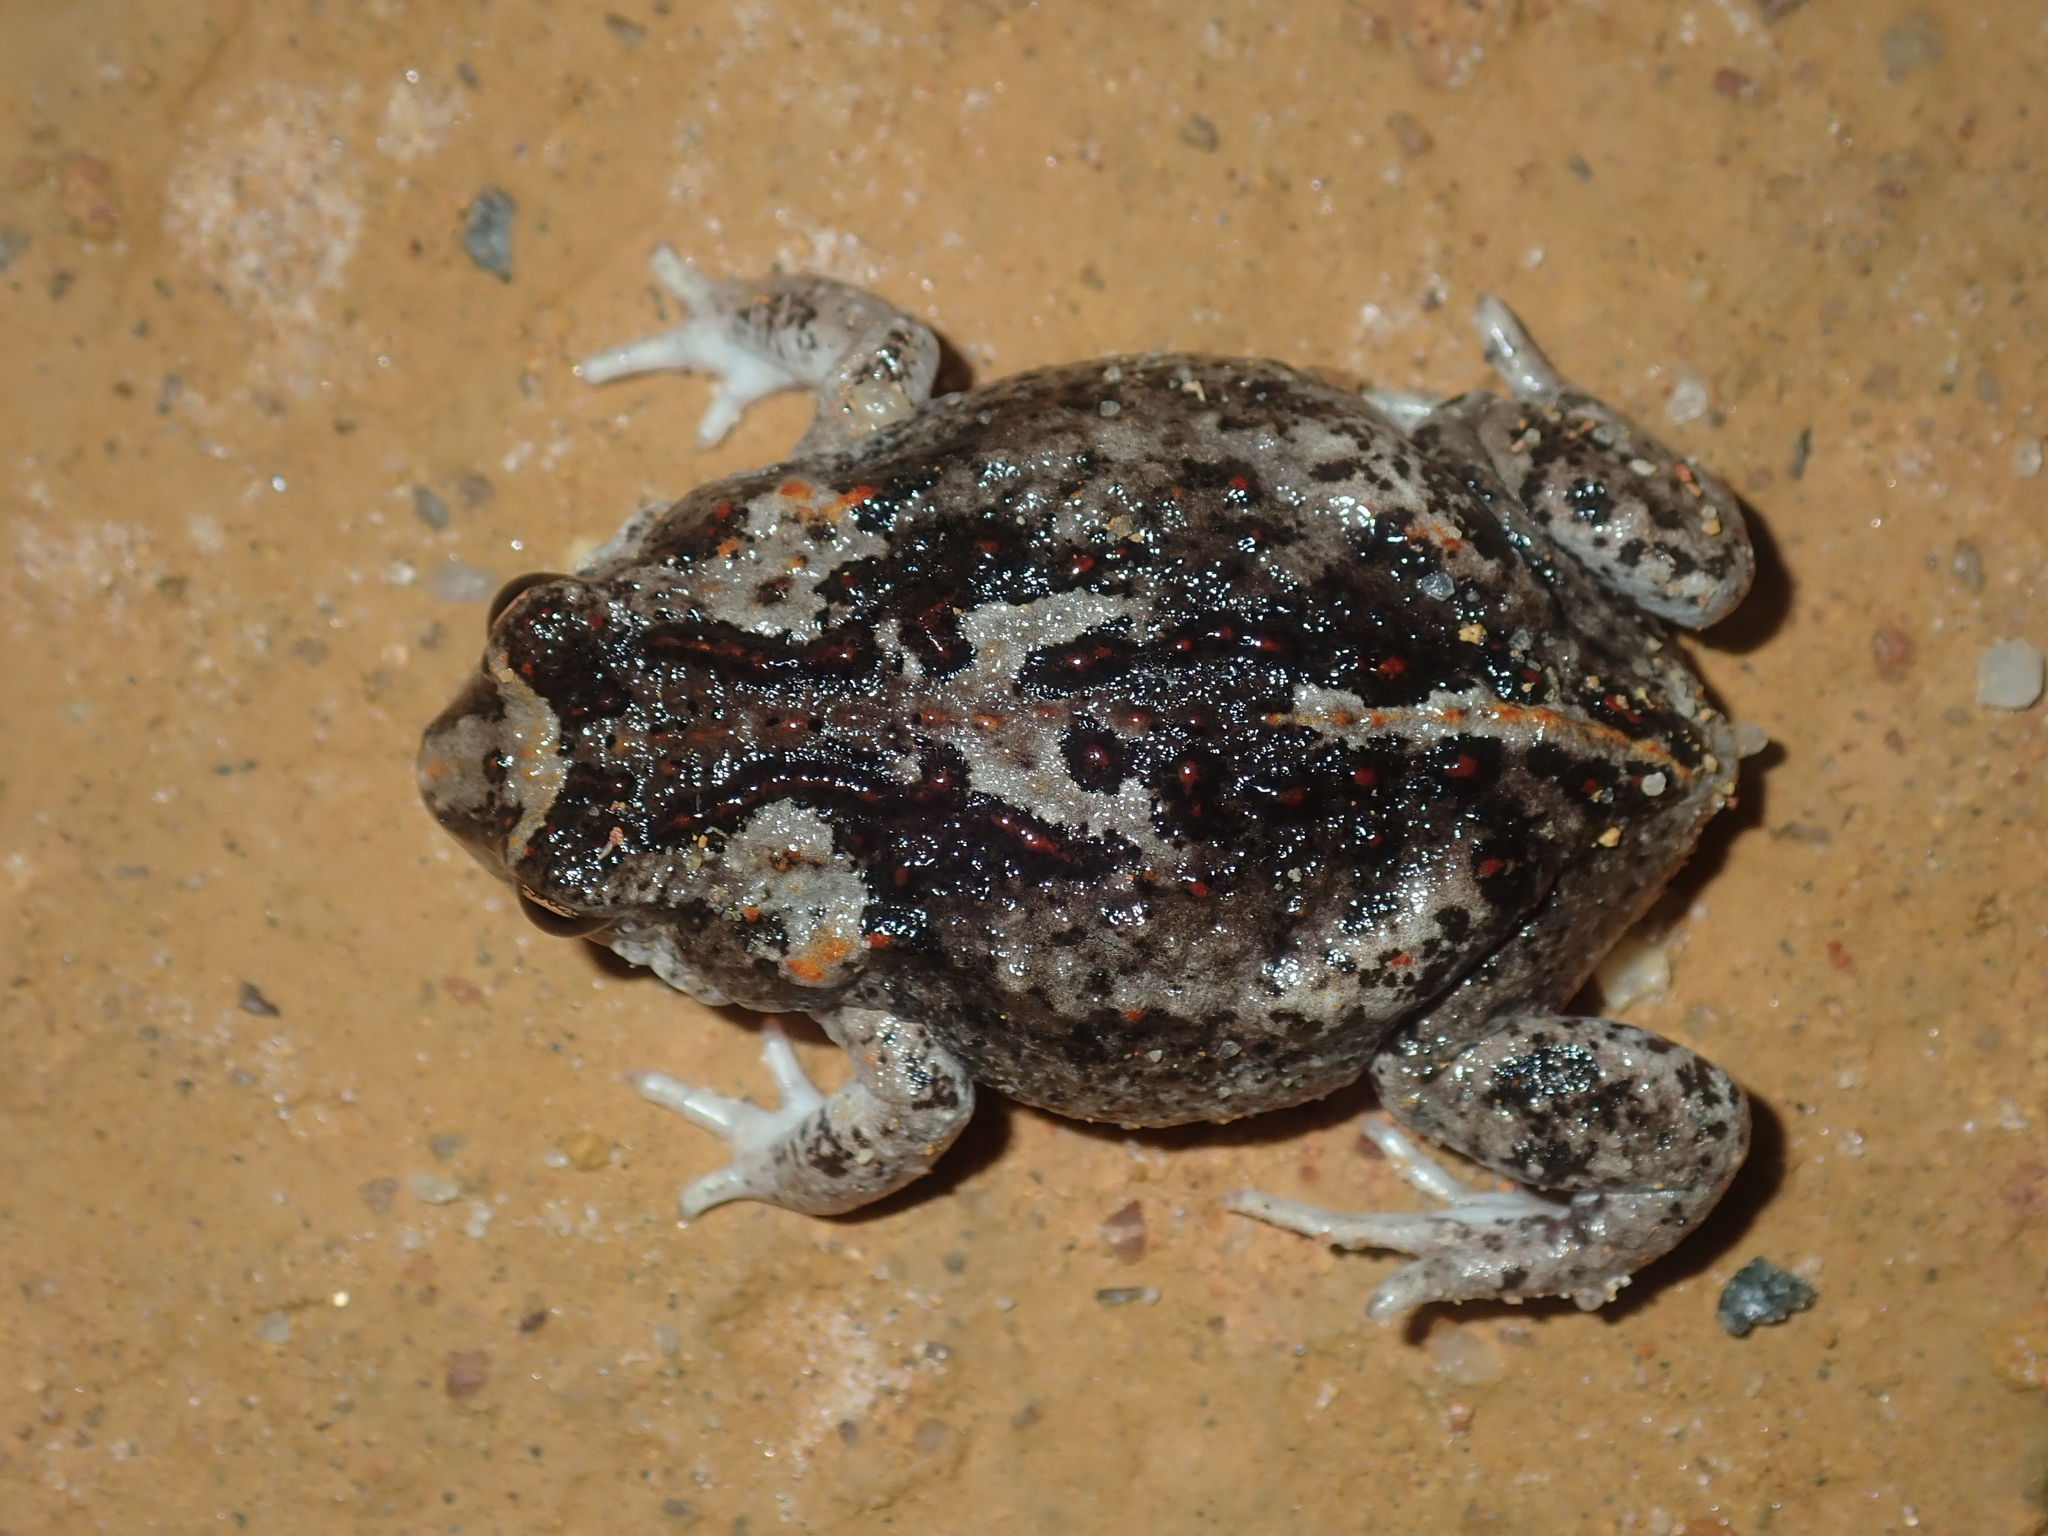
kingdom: Animalia
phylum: Chordata
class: Amphibia
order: Anura
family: Myobatrachidae
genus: Pseudophryne
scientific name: Pseudophryne guentheri
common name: Günther’s toadlet
